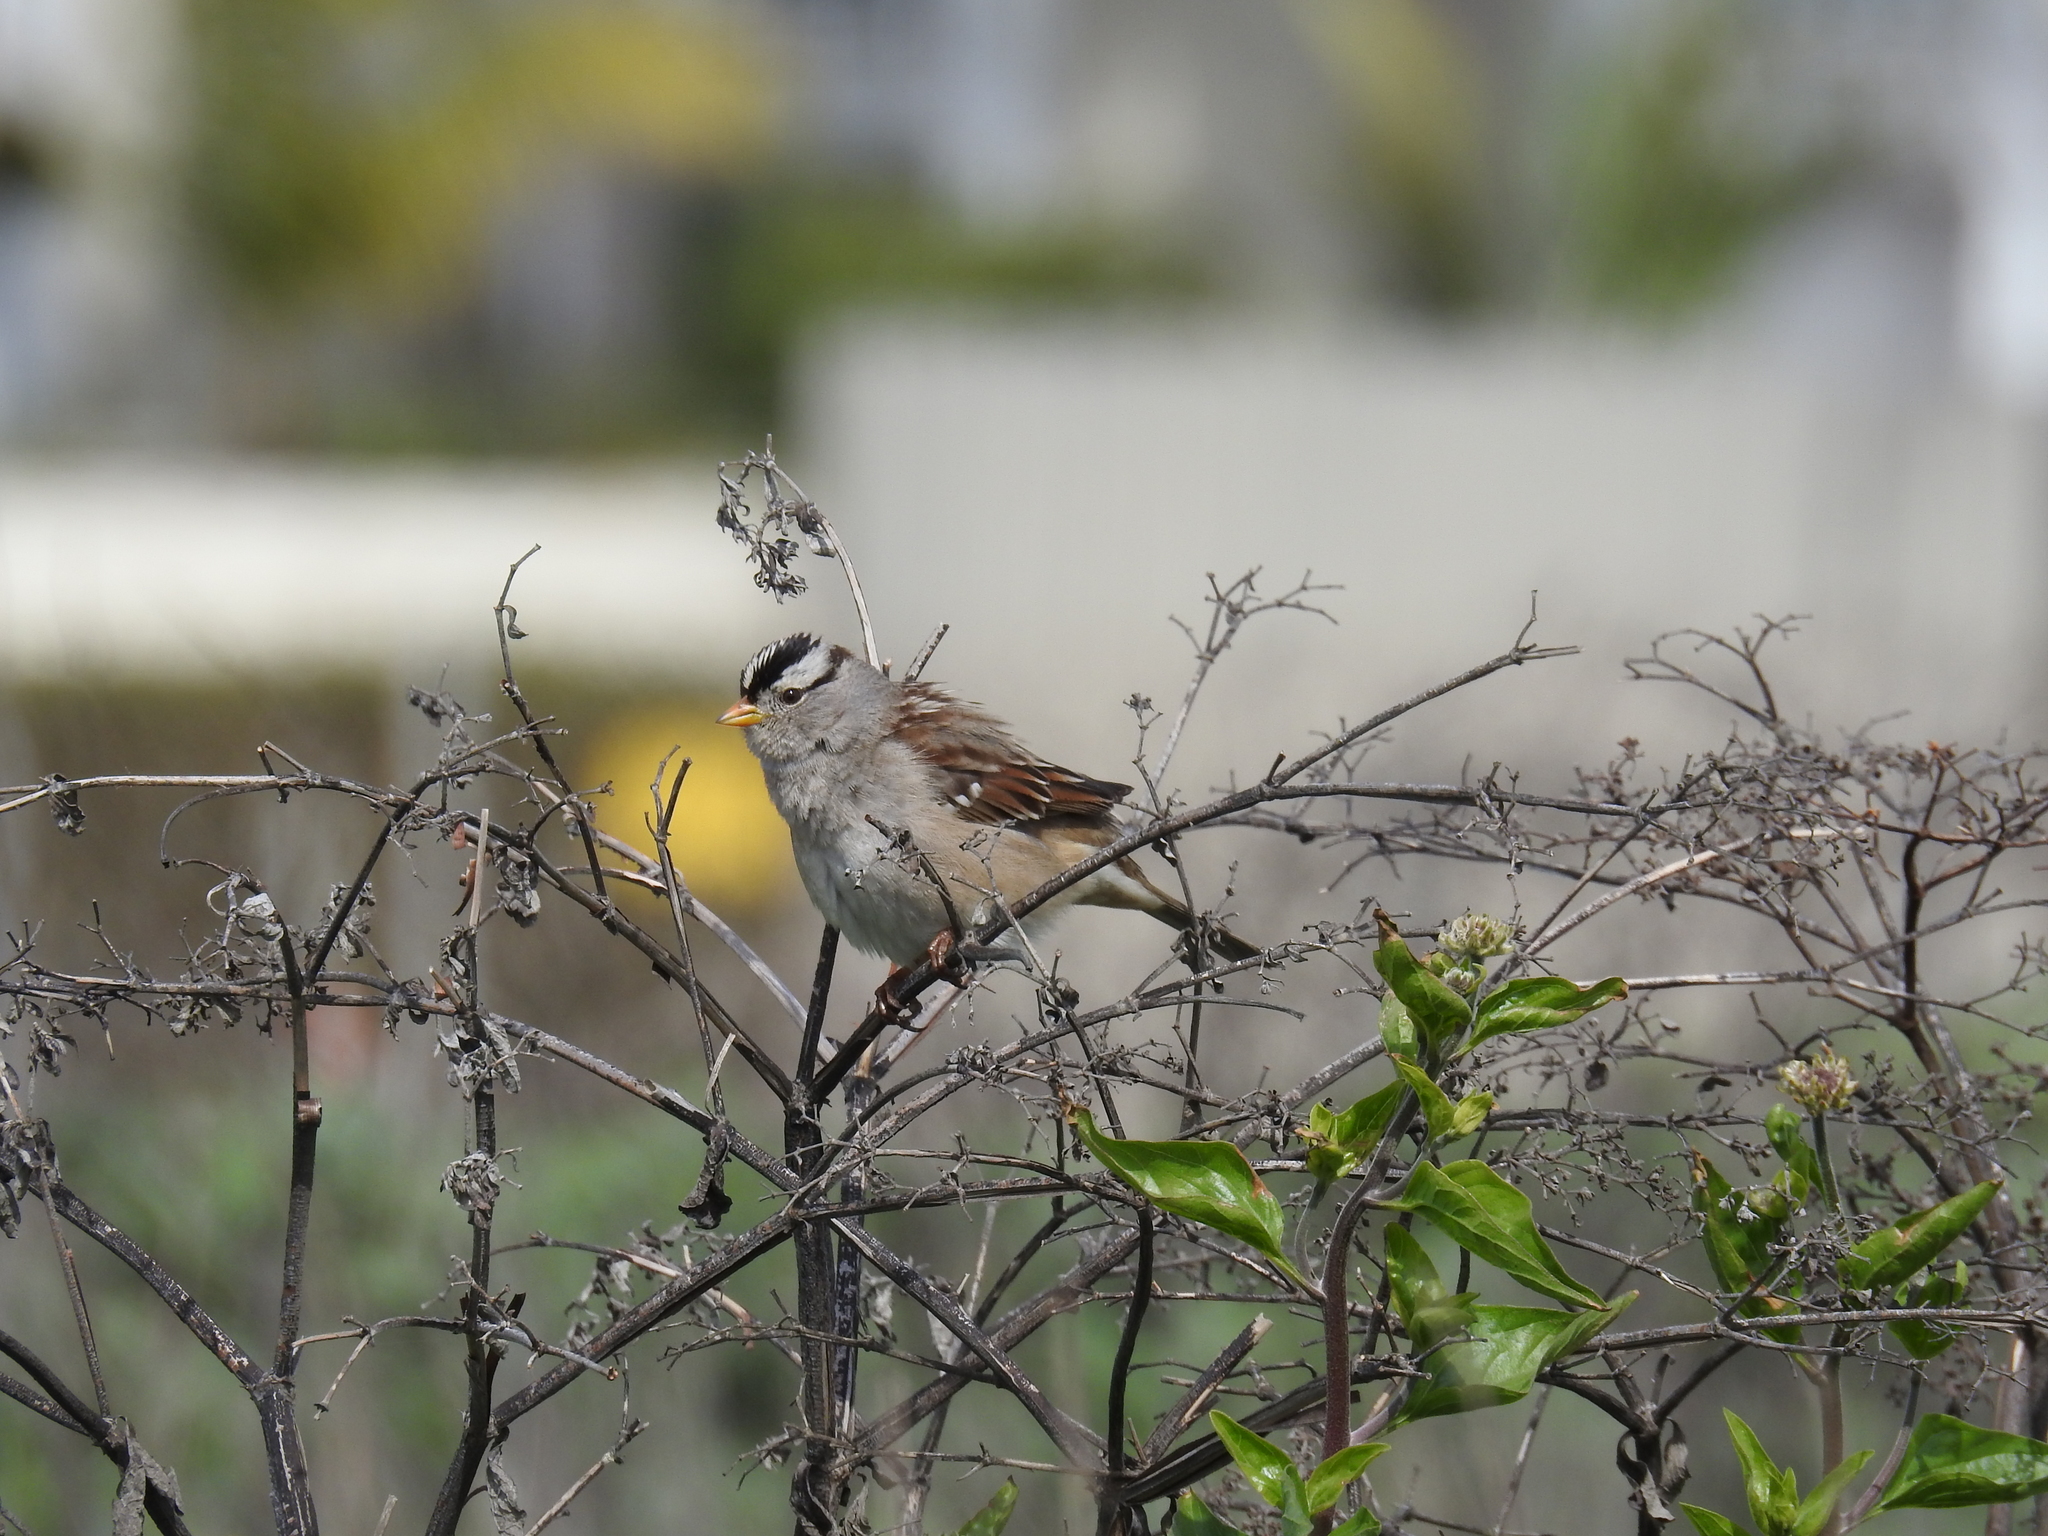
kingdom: Animalia
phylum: Chordata
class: Aves
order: Passeriformes
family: Passerellidae
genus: Zonotrichia
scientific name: Zonotrichia leucophrys
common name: White-crowned sparrow
